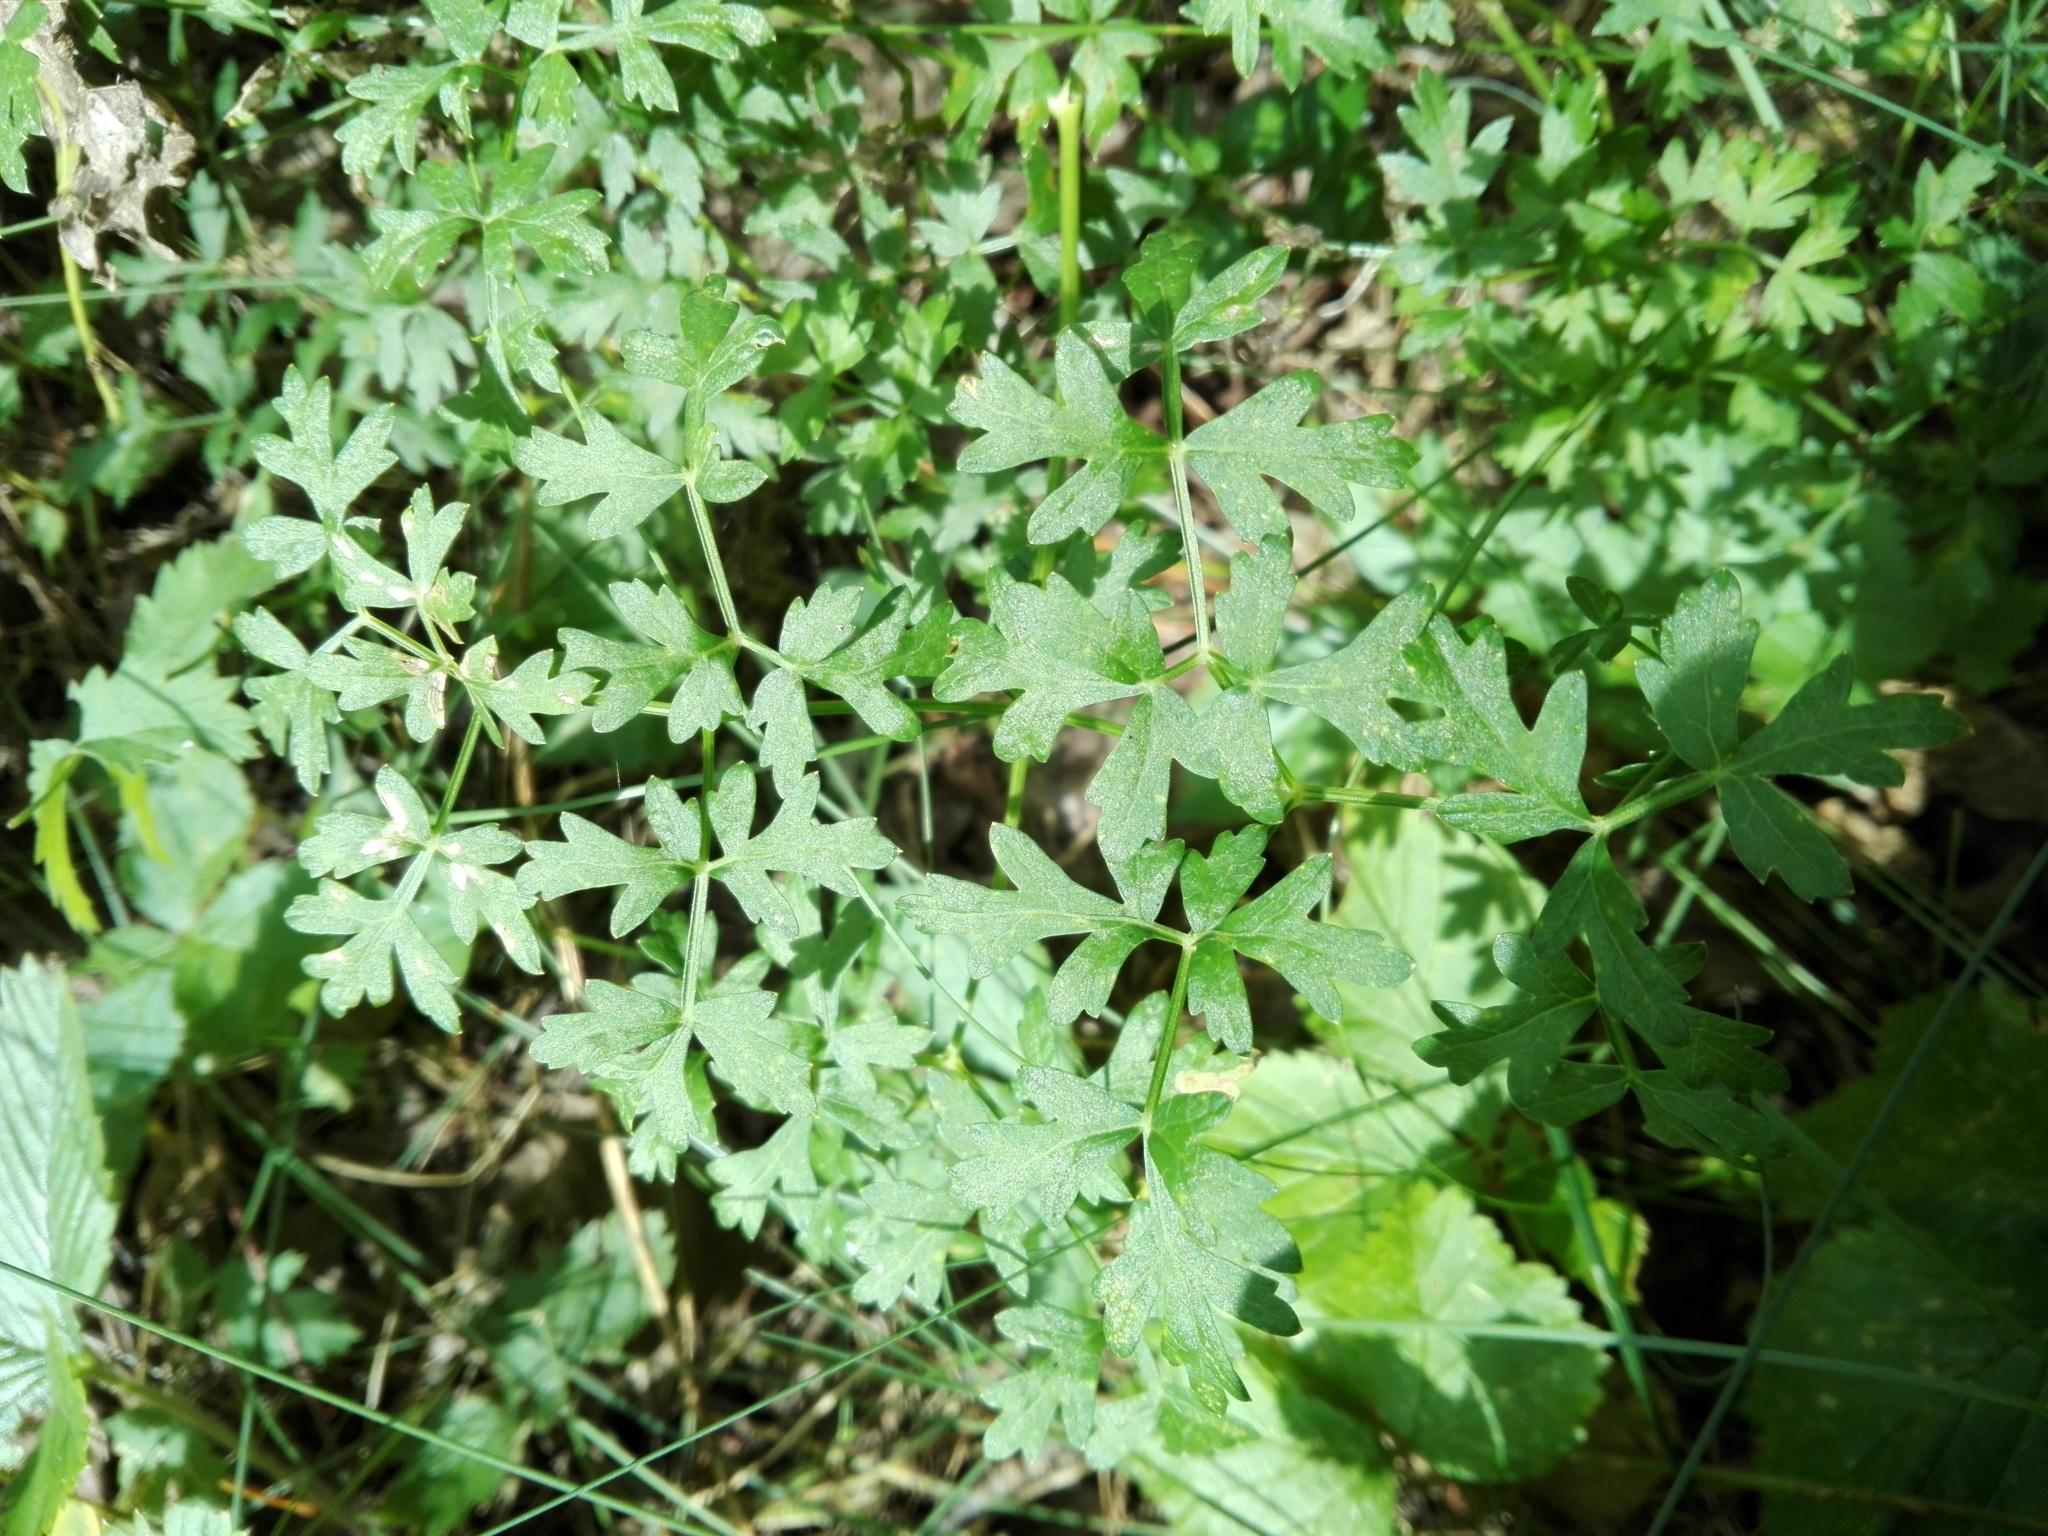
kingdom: Plantae
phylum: Tracheophyta
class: Magnoliopsida
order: Apiales
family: Apiaceae
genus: Oreoselinum
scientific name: Oreoselinum nigrum
